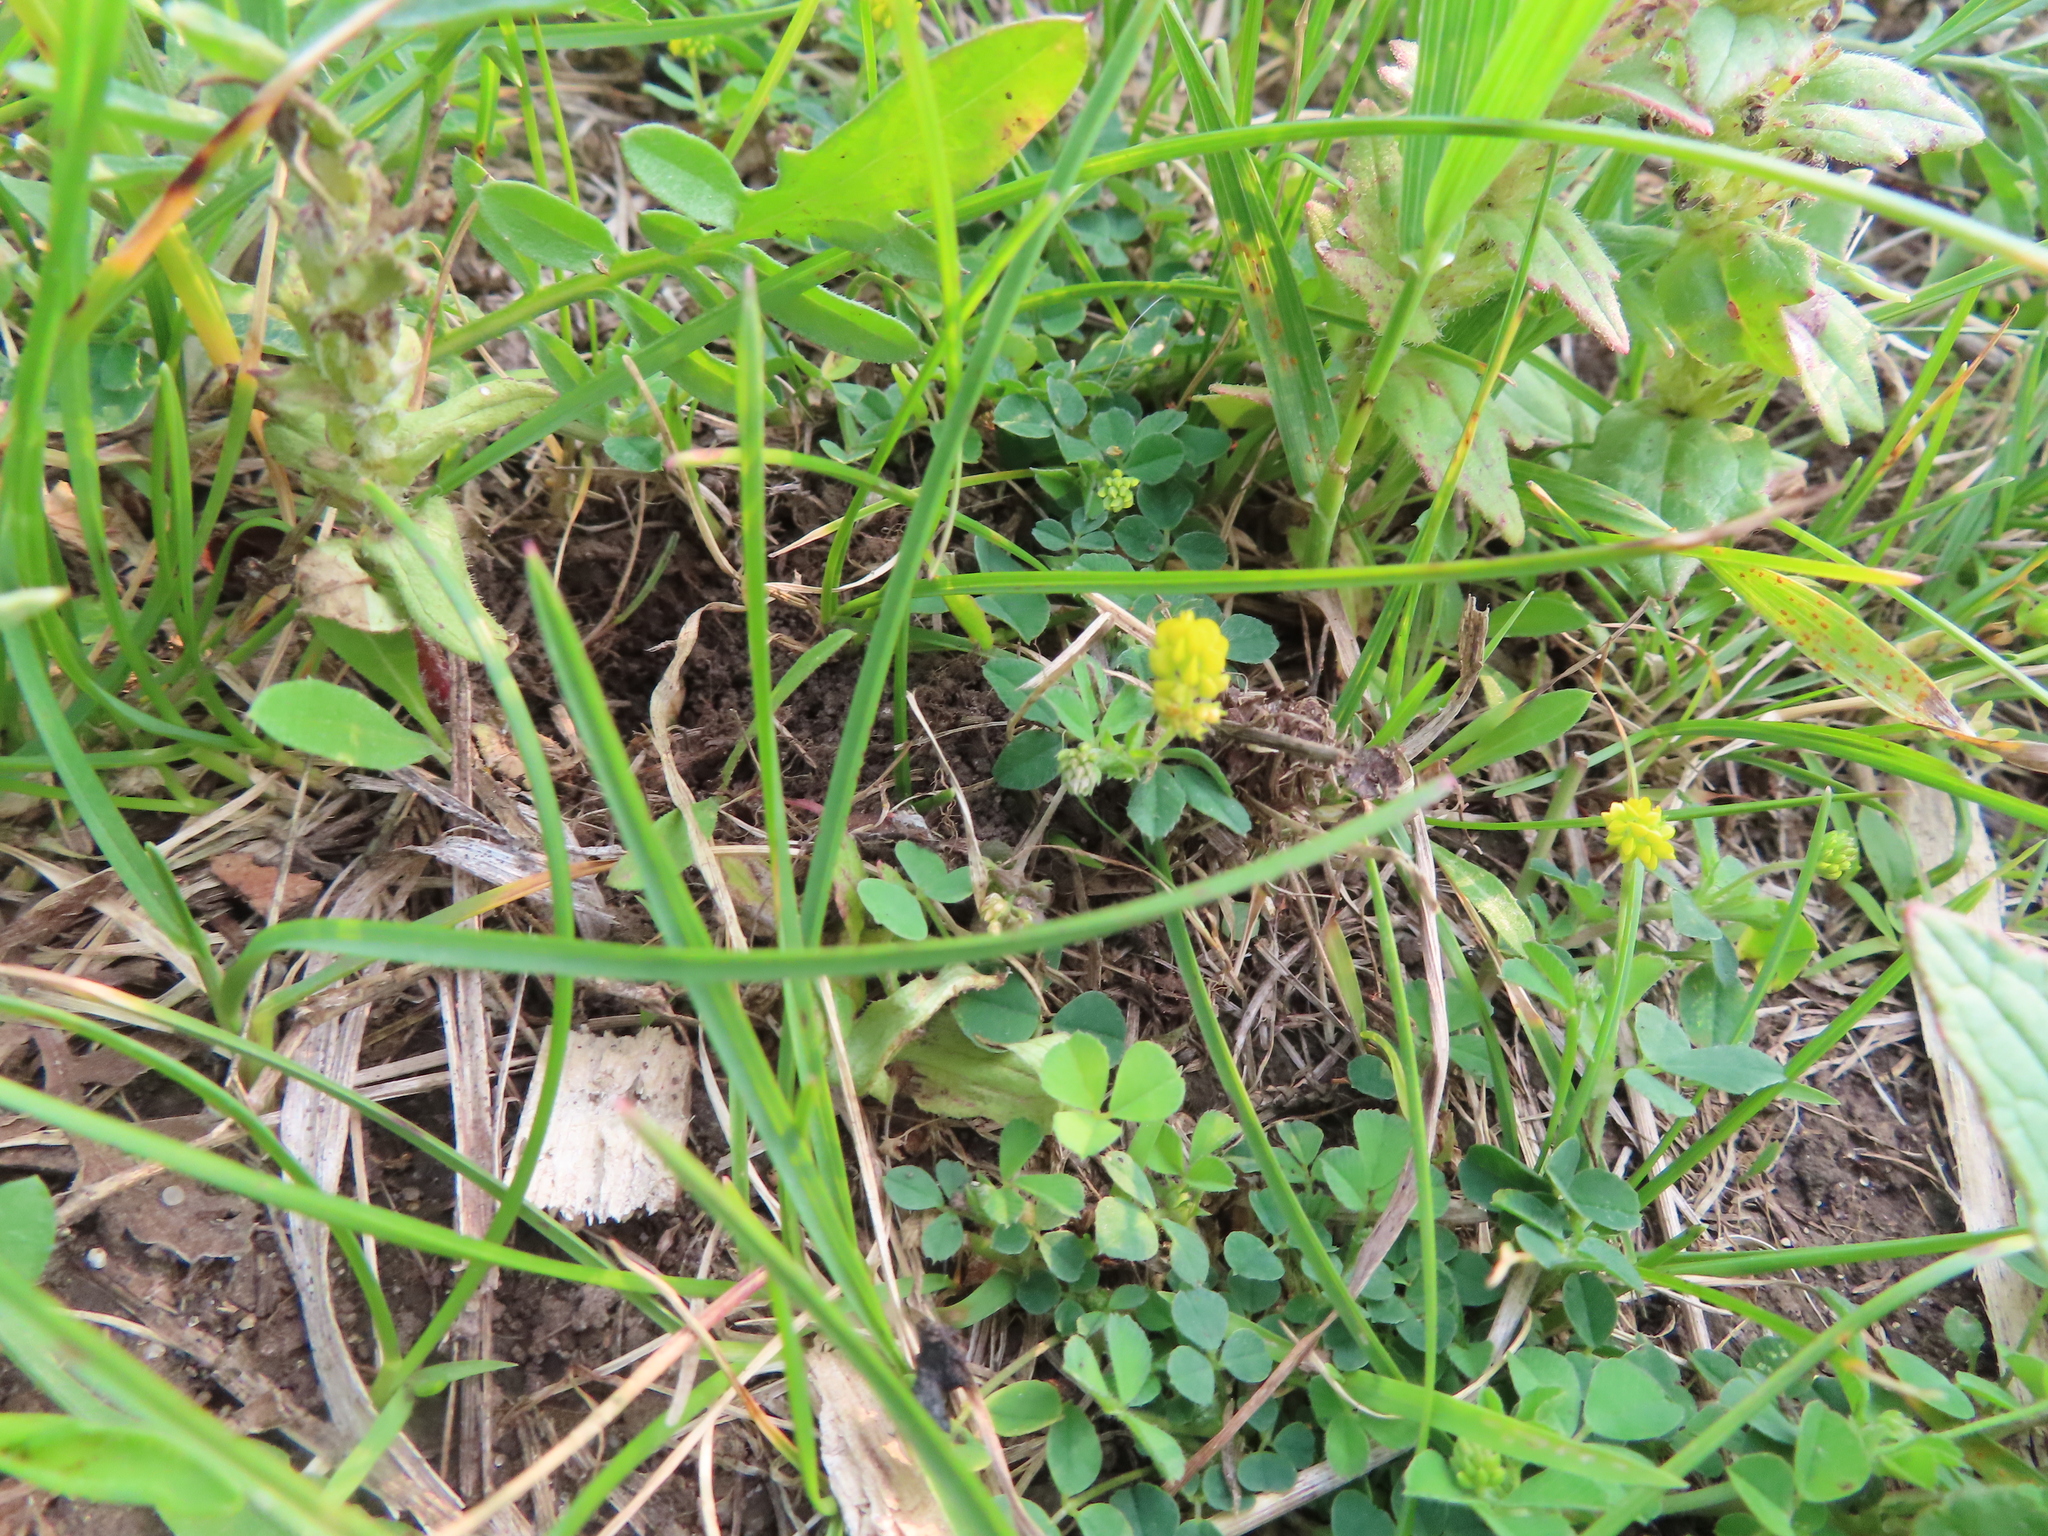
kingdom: Plantae
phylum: Tracheophyta
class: Magnoliopsida
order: Fabales
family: Fabaceae
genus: Medicago
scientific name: Medicago lupulina
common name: Black medick
